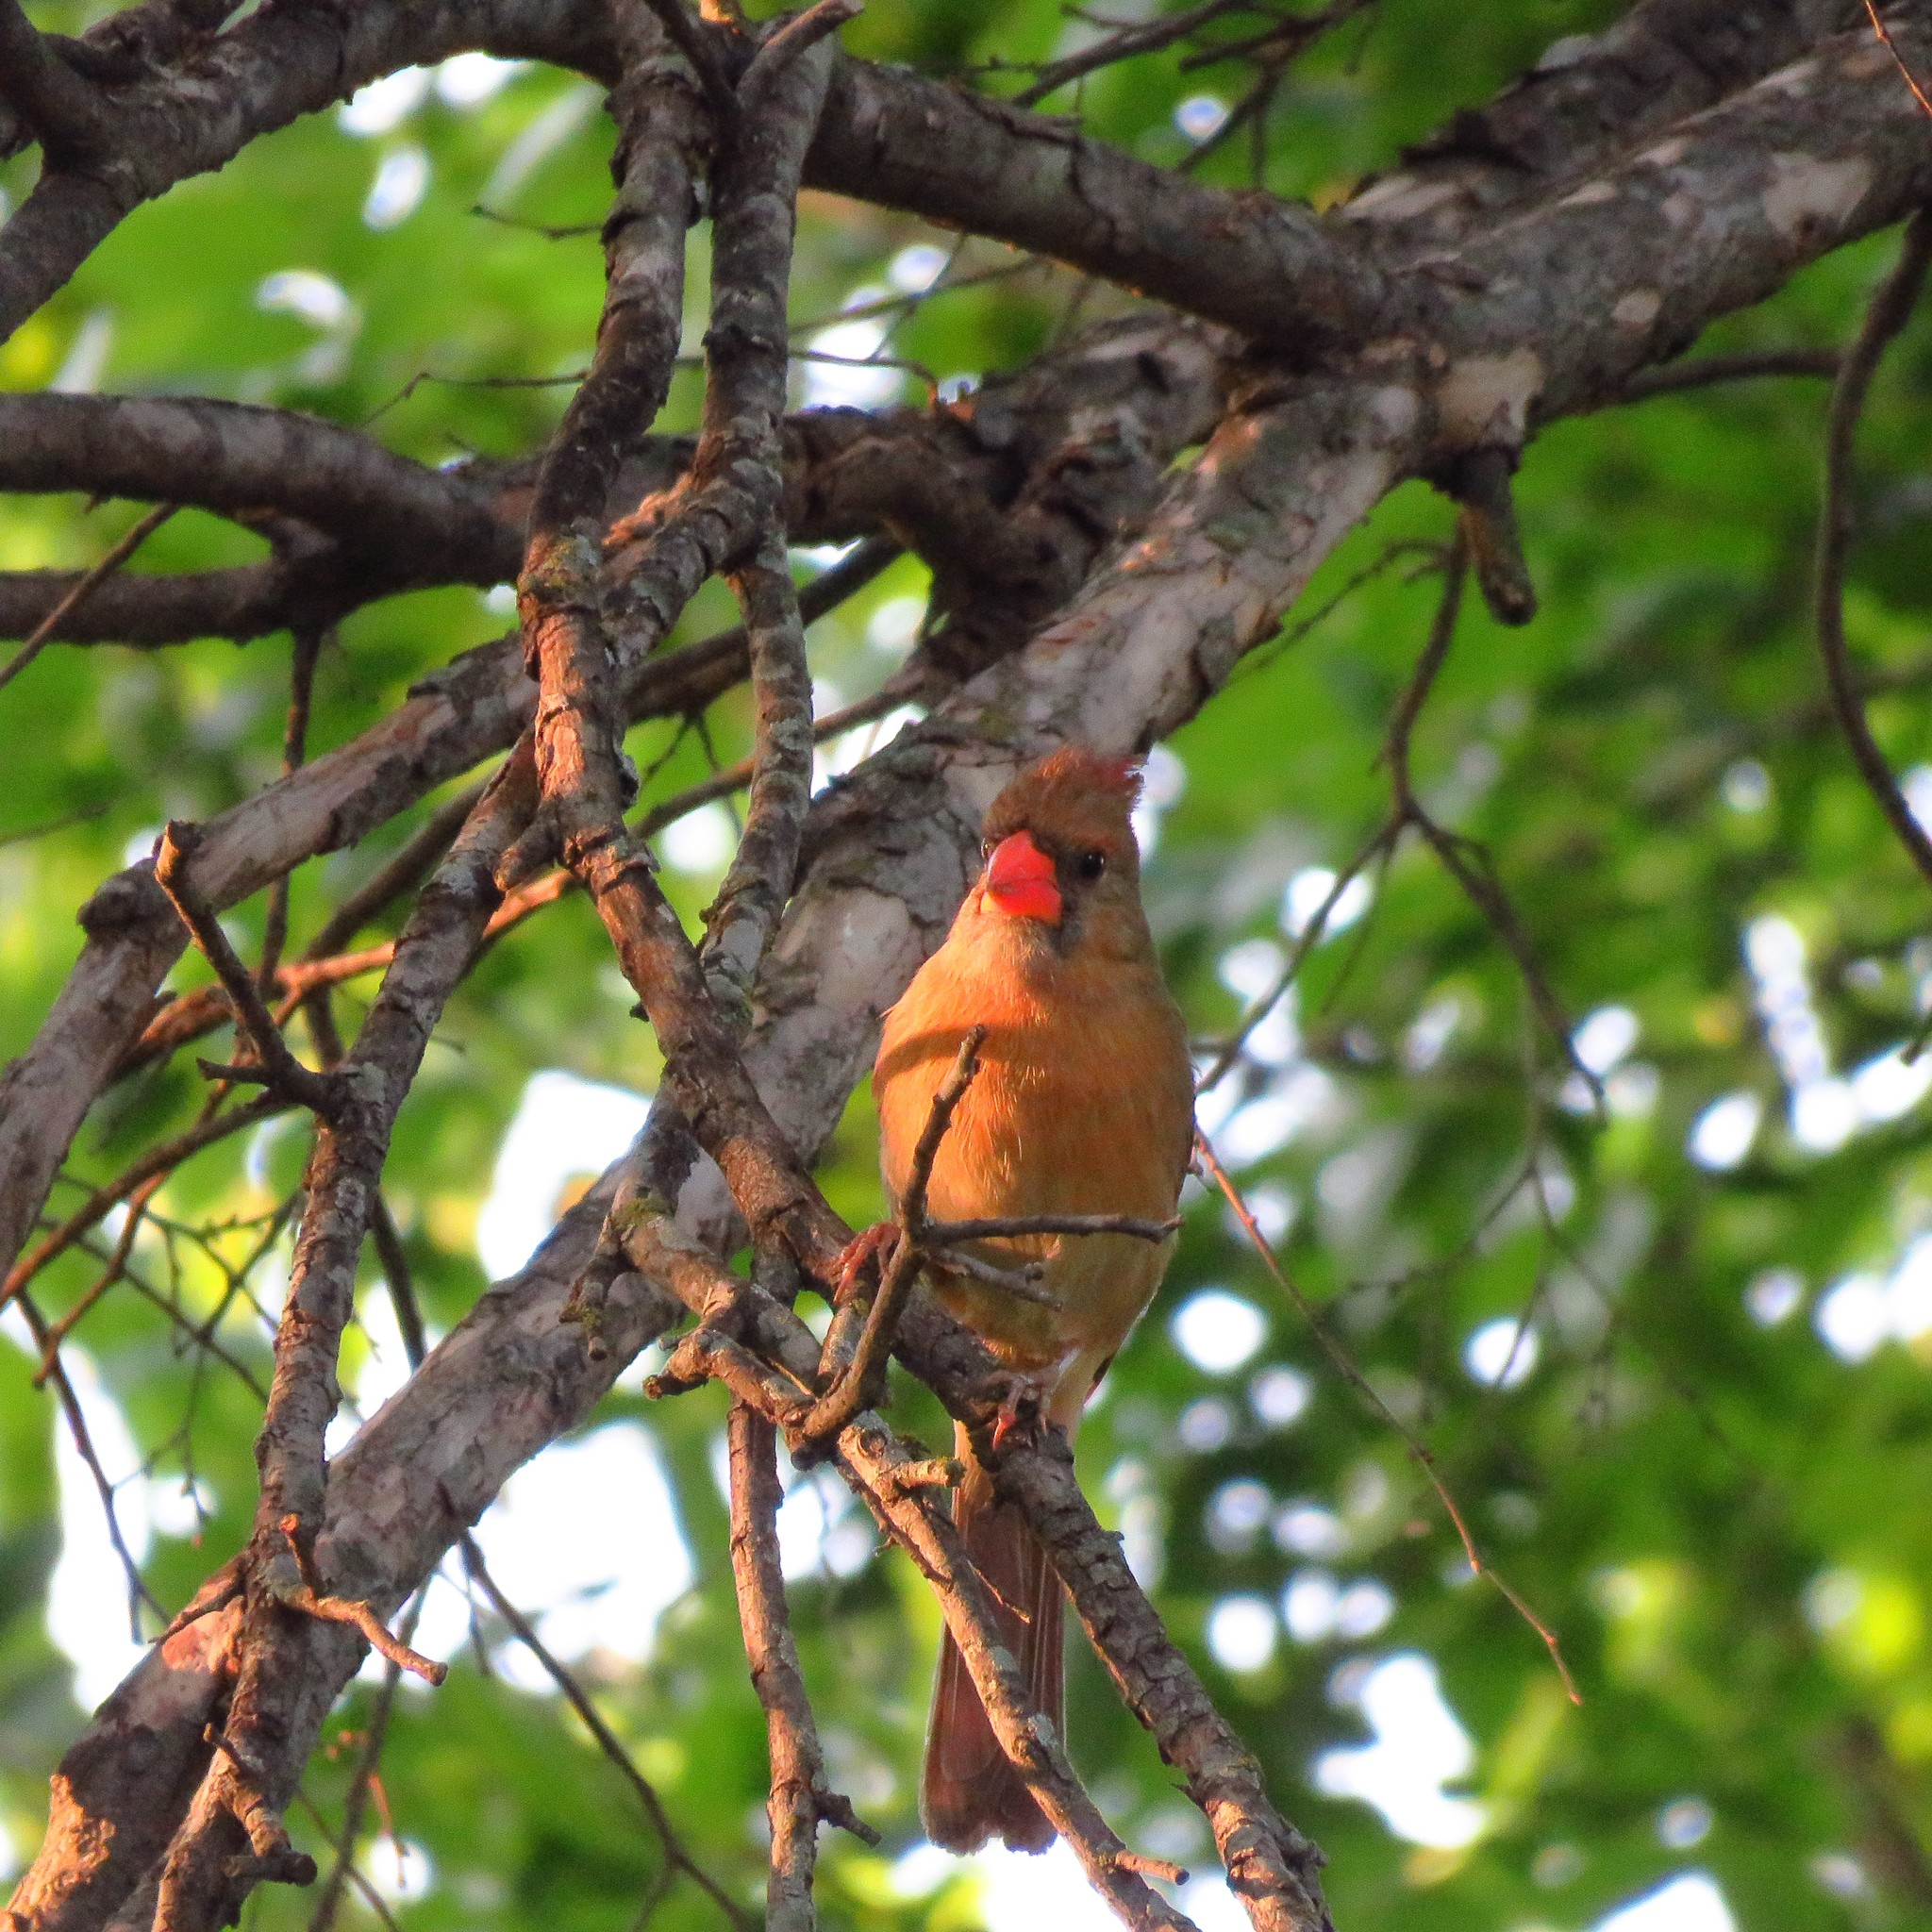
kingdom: Animalia
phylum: Chordata
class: Aves
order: Passeriformes
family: Cardinalidae
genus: Cardinalis
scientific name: Cardinalis cardinalis
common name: Northern cardinal
